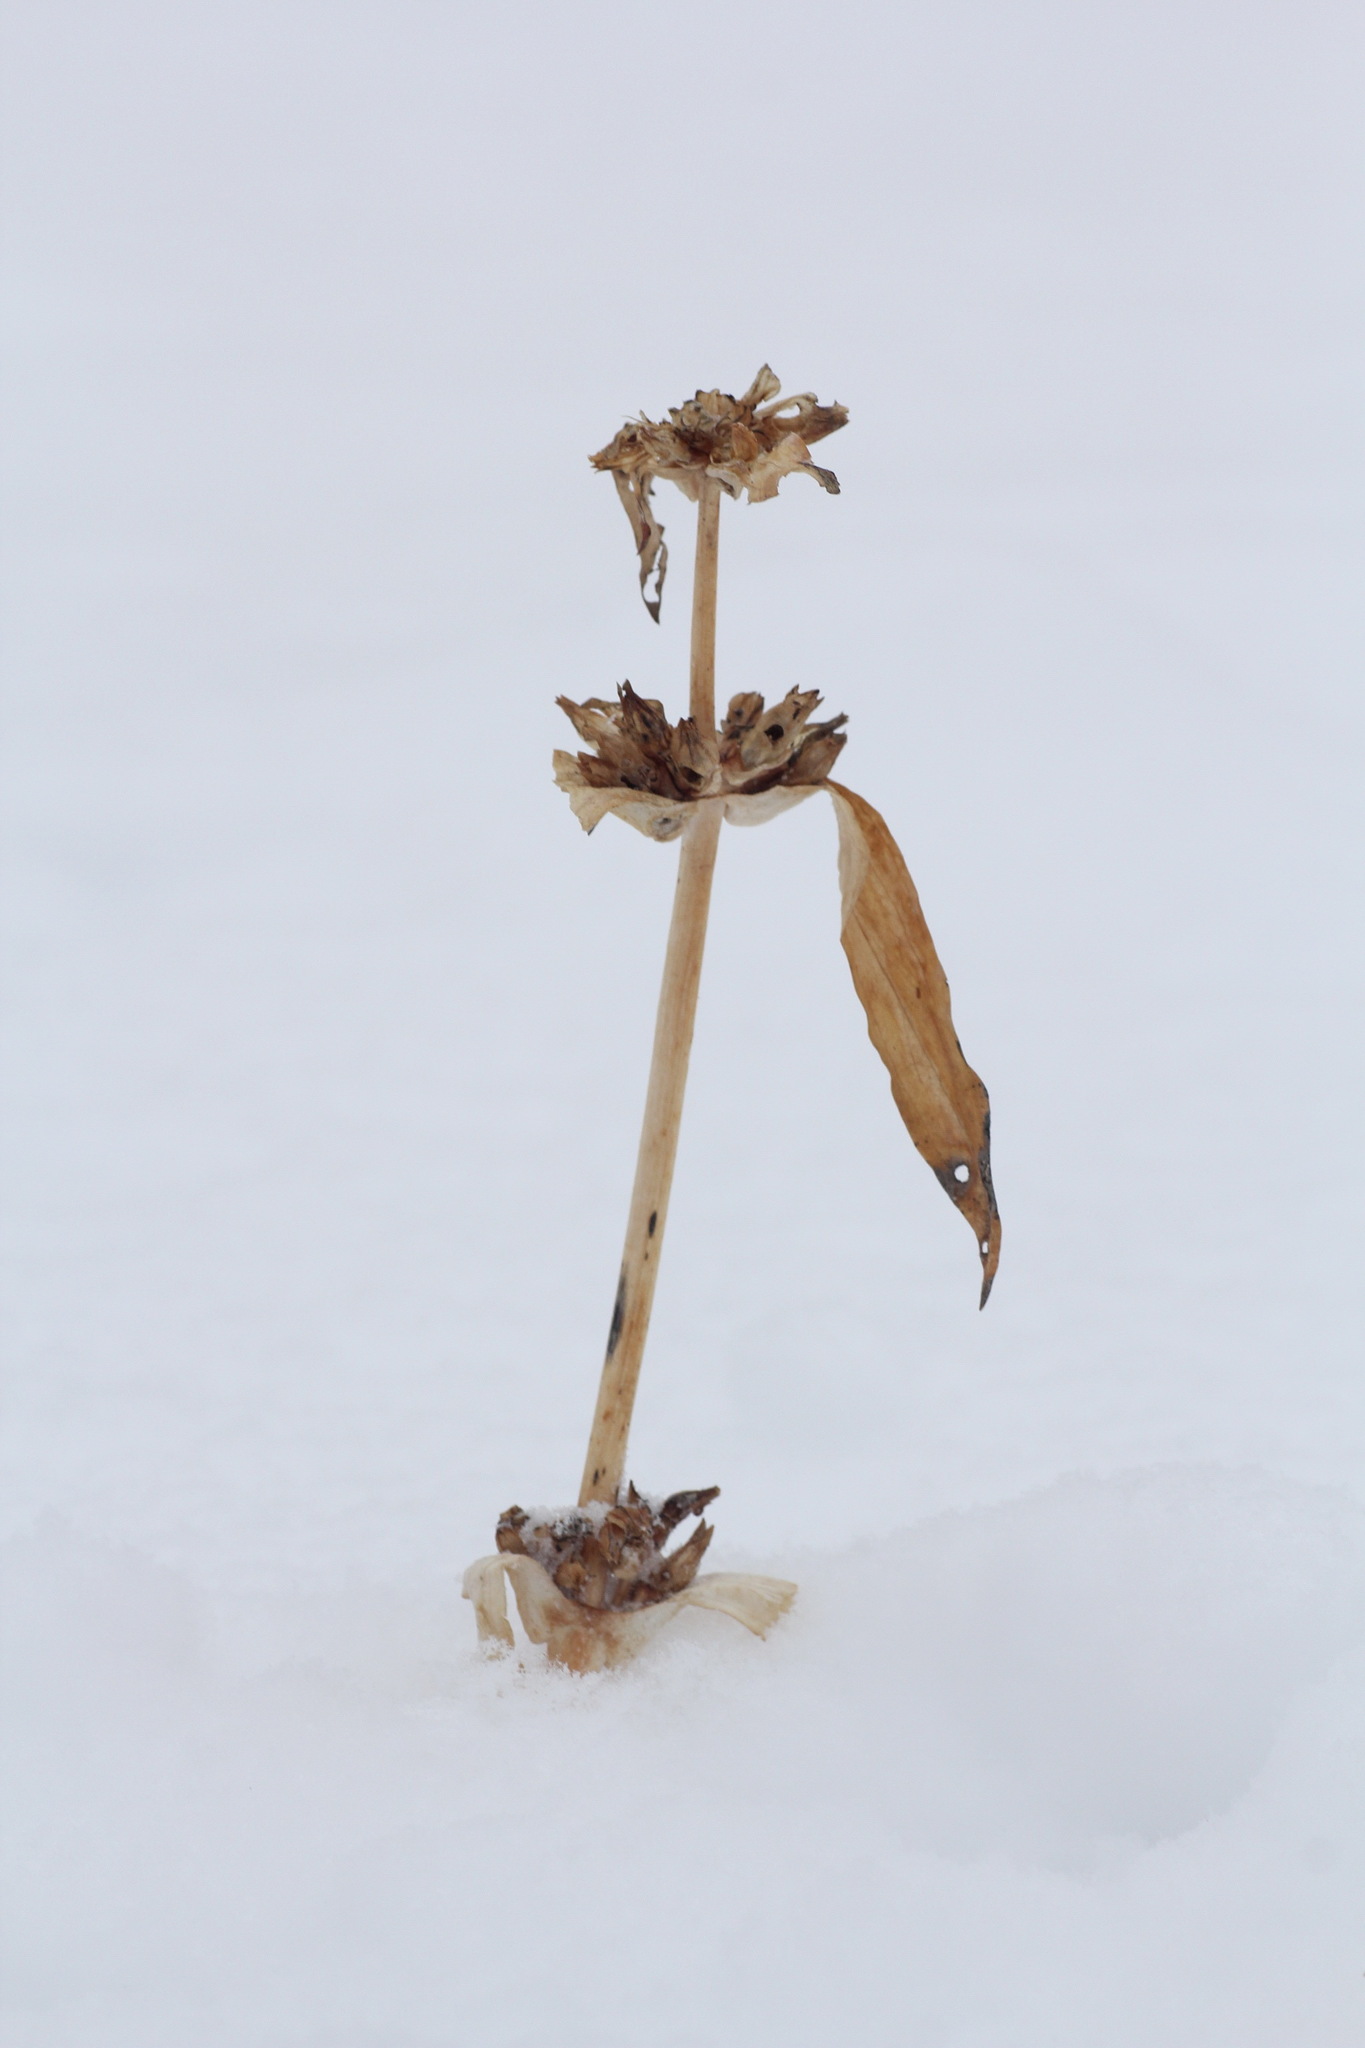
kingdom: Plantae
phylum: Tracheophyta
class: Magnoliopsida
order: Gentianales
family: Gentianaceae
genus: Gentiana
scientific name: Gentiana macrophylla
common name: Large-leaf gentian
